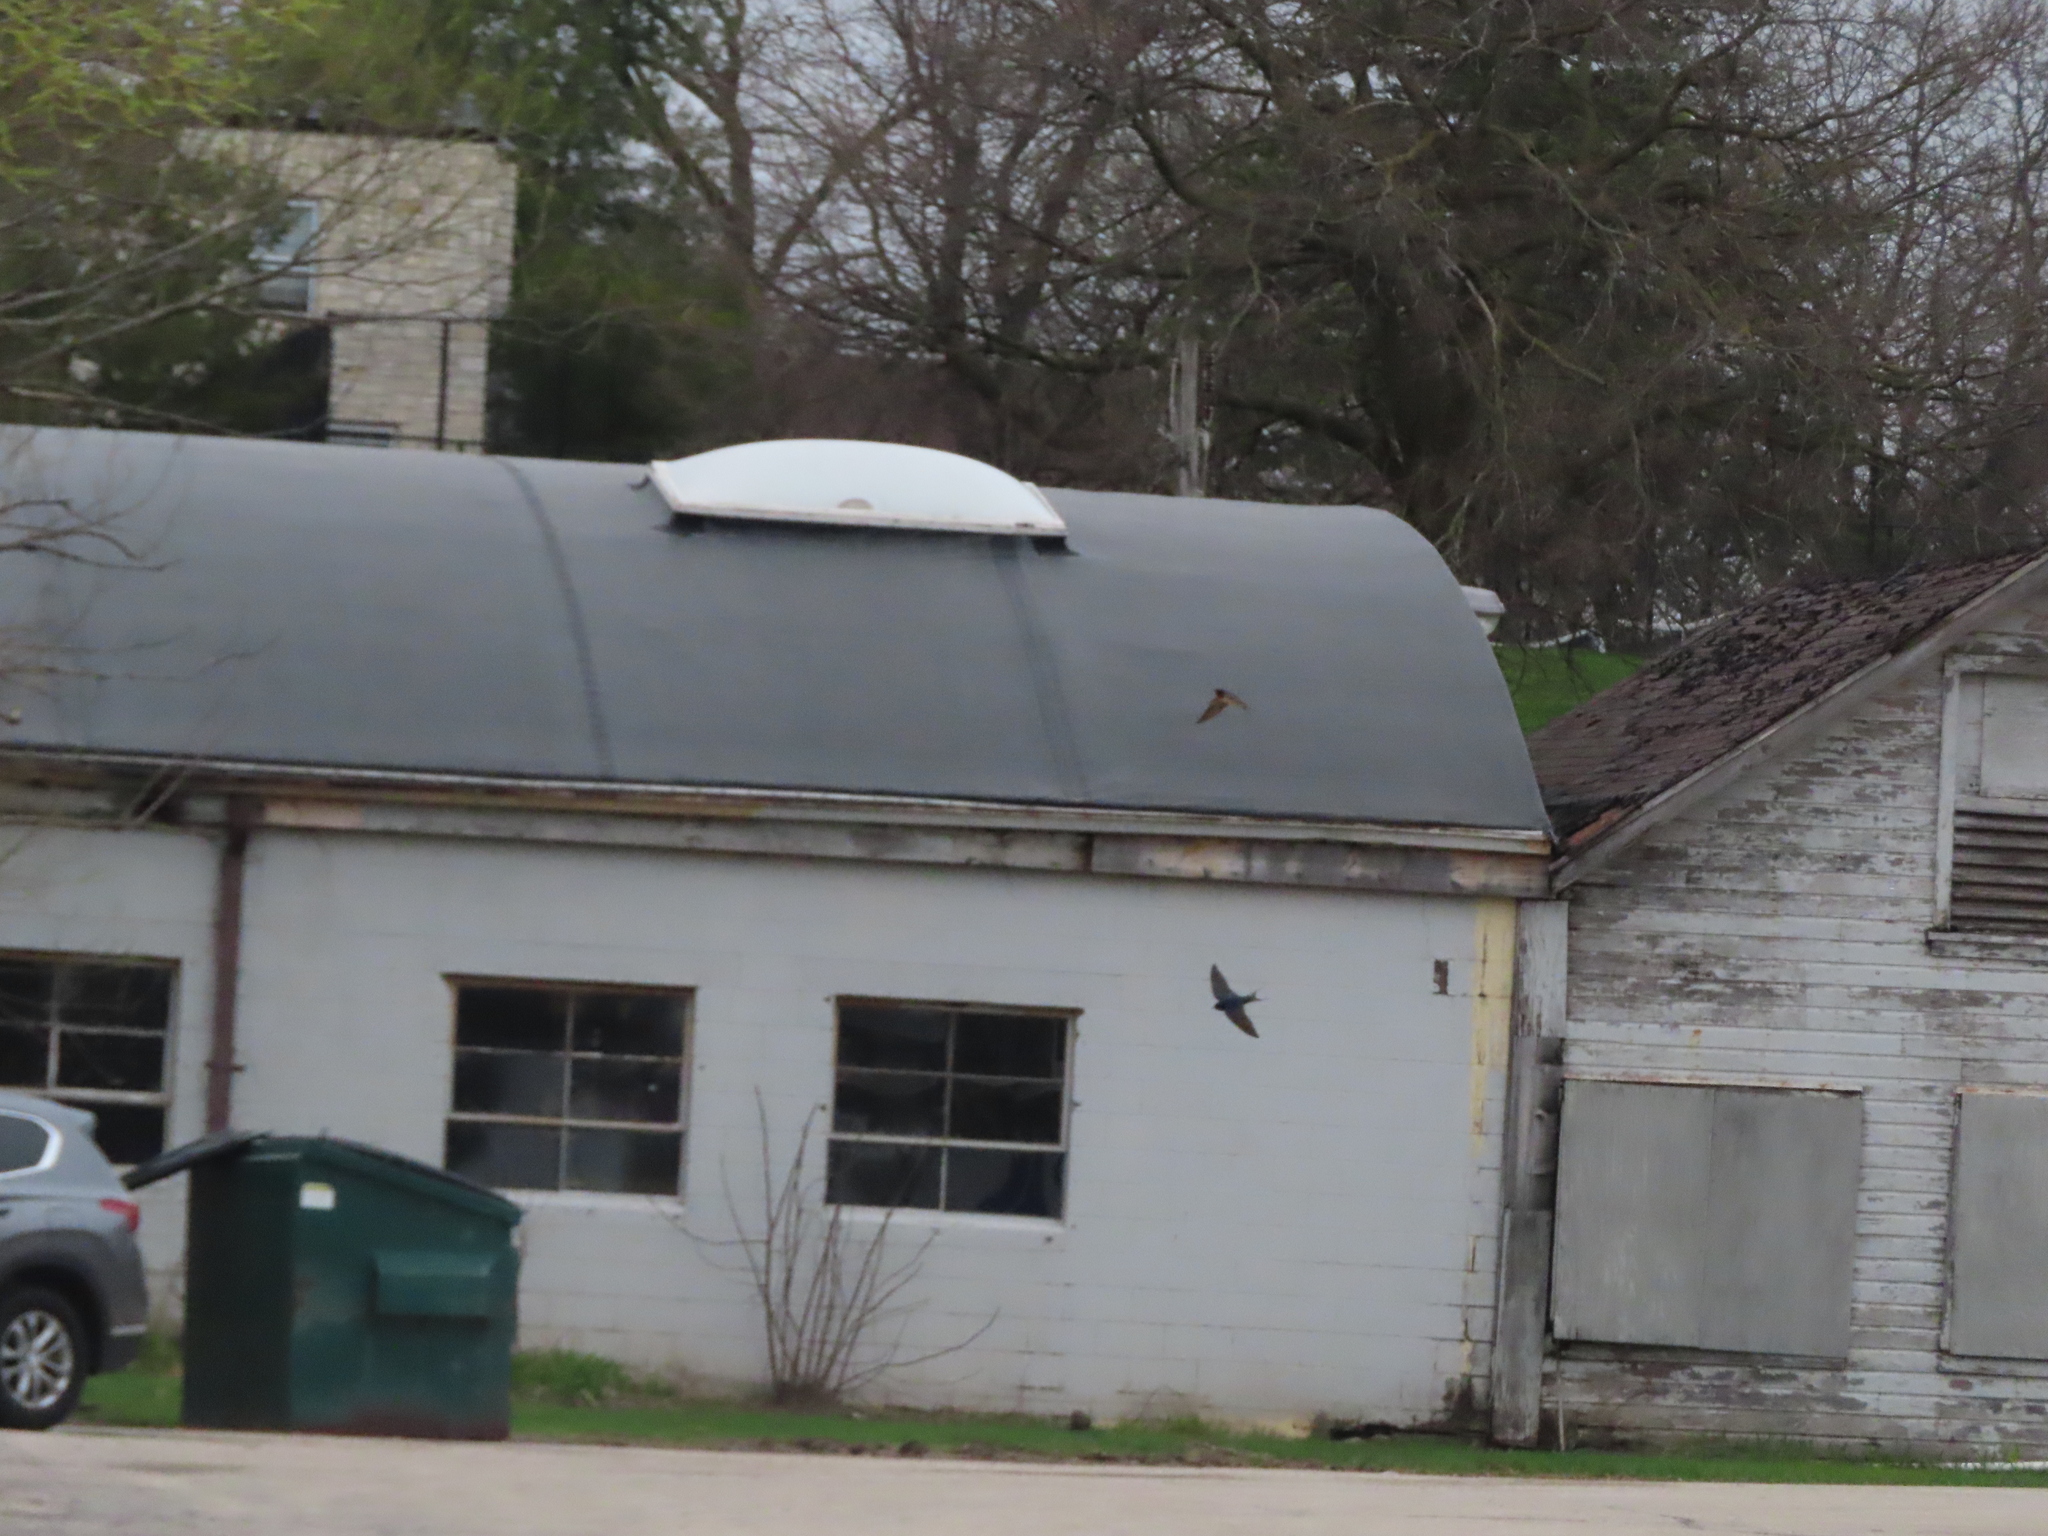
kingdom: Animalia
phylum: Chordata
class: Aves
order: Passeriformes
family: Hirundinidae
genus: Hirundo
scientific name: Hirundo rustica
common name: Barn swallow
